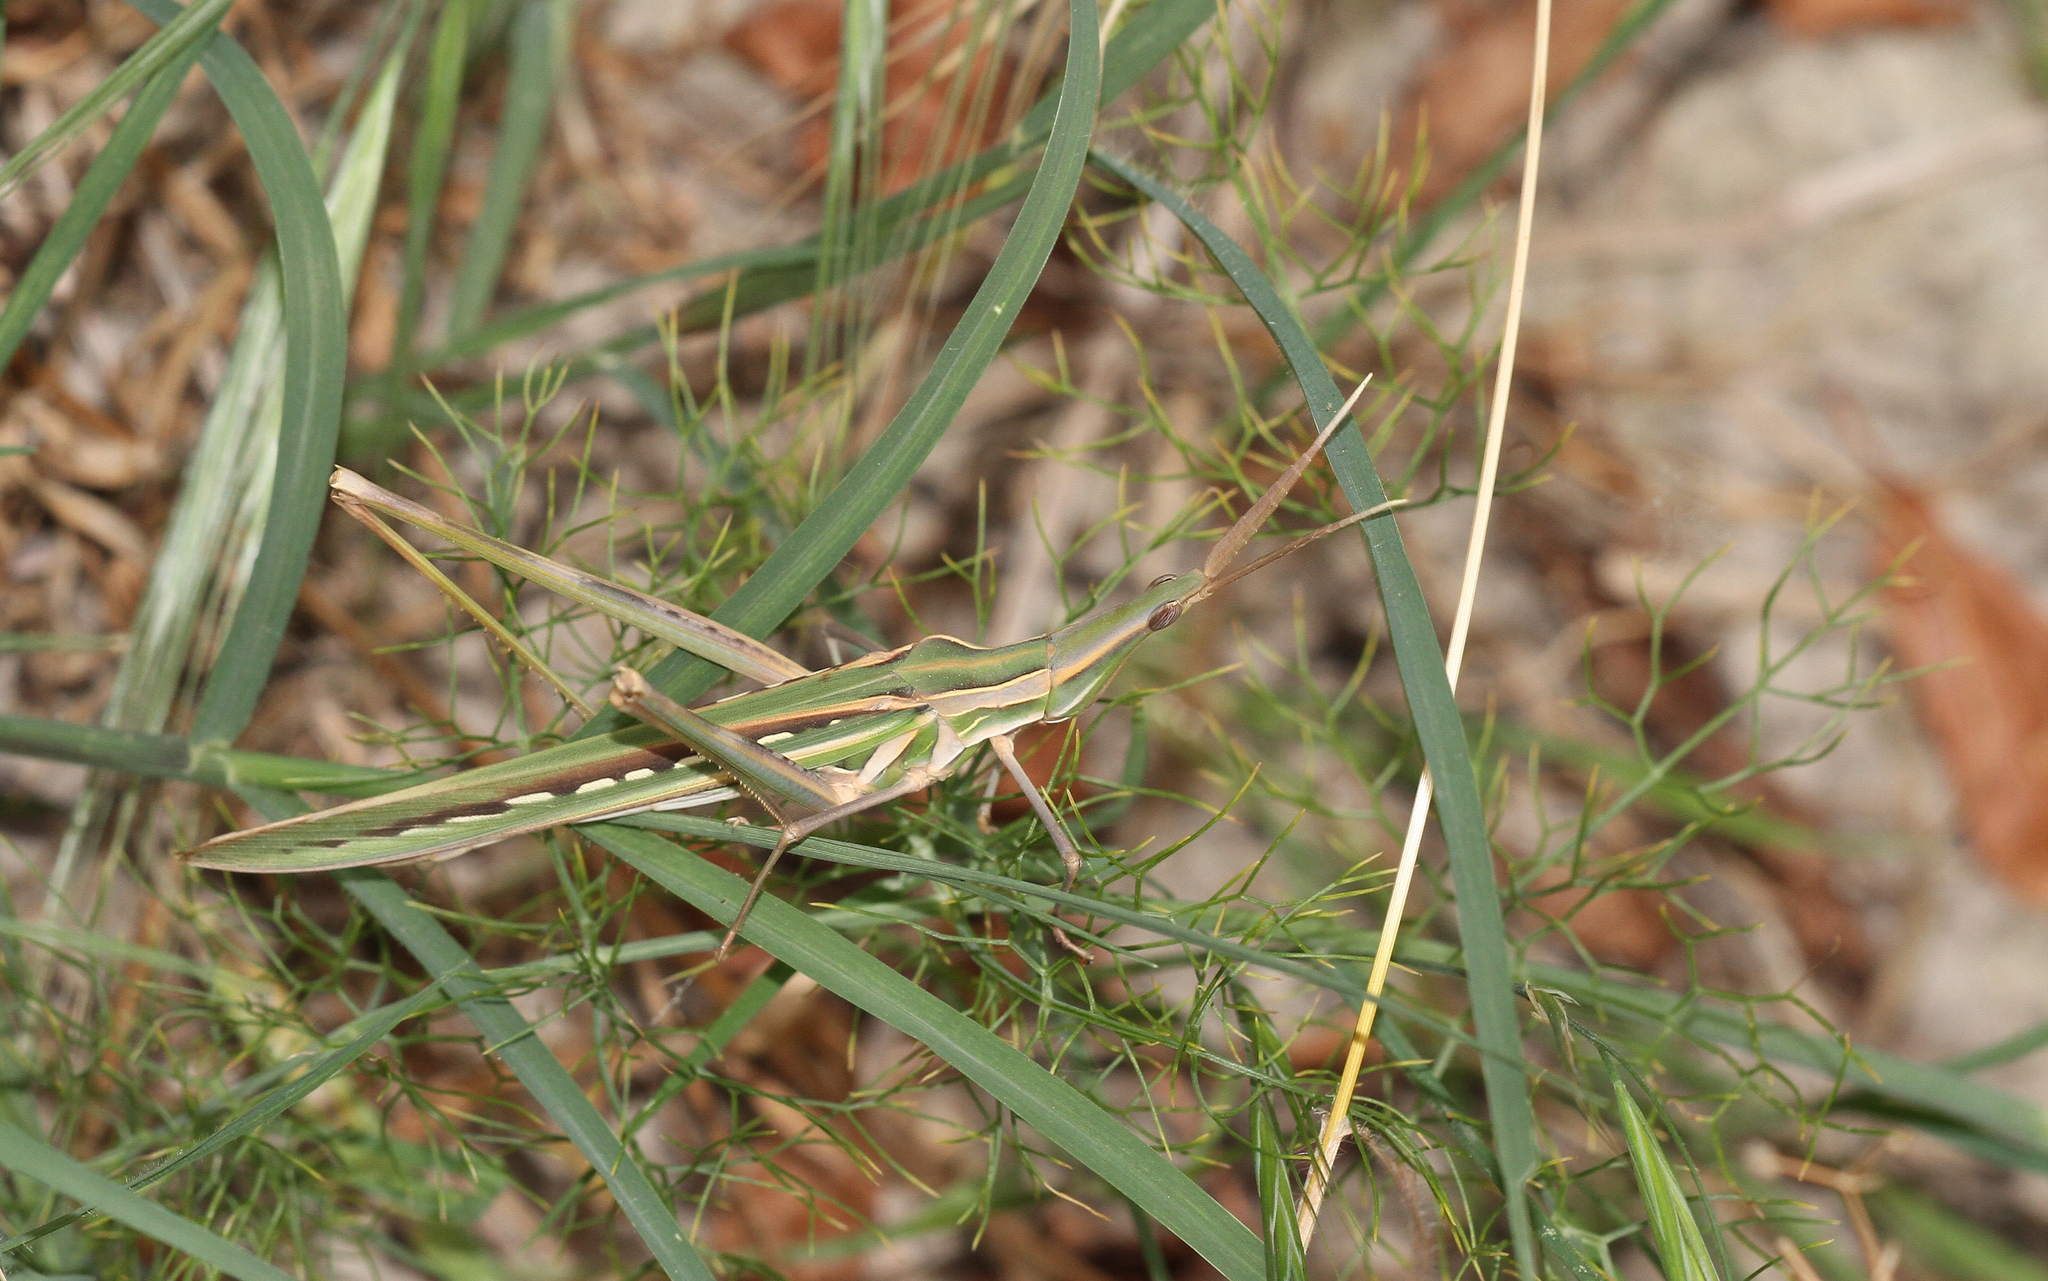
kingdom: Animalia
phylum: Arthropoda
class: Insecta
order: Orthoptera
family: Acrididae
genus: Truxalis
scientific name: Truxalis eximia
